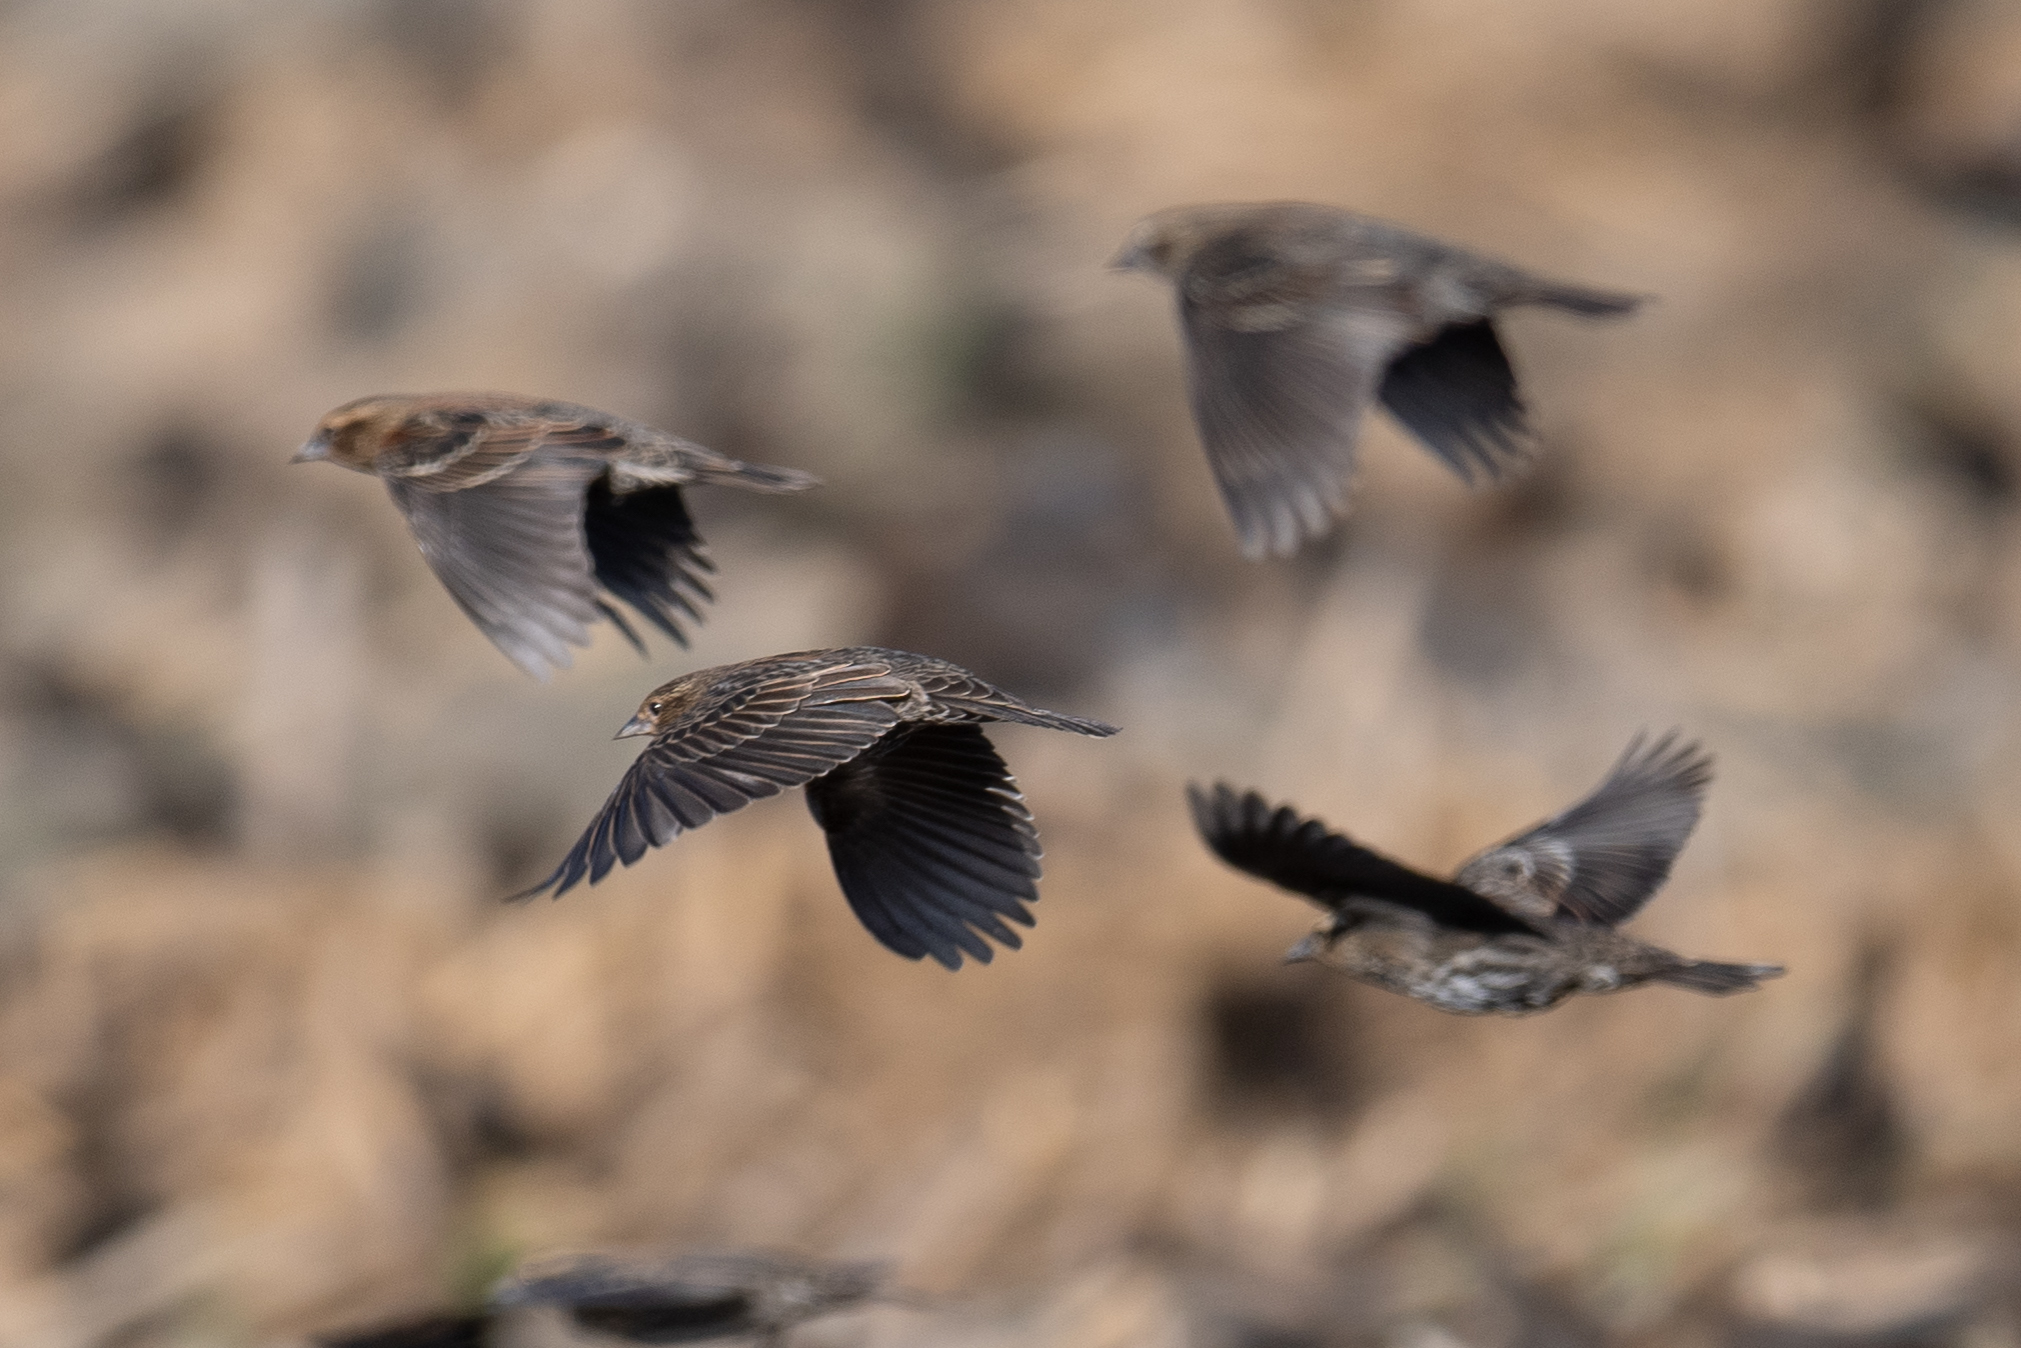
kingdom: Animalia
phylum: Chordata
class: Aves
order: Passeriformes
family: Icteridae
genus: Agelaius
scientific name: Agelaius phoeniceus
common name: Red-winged blackbird
